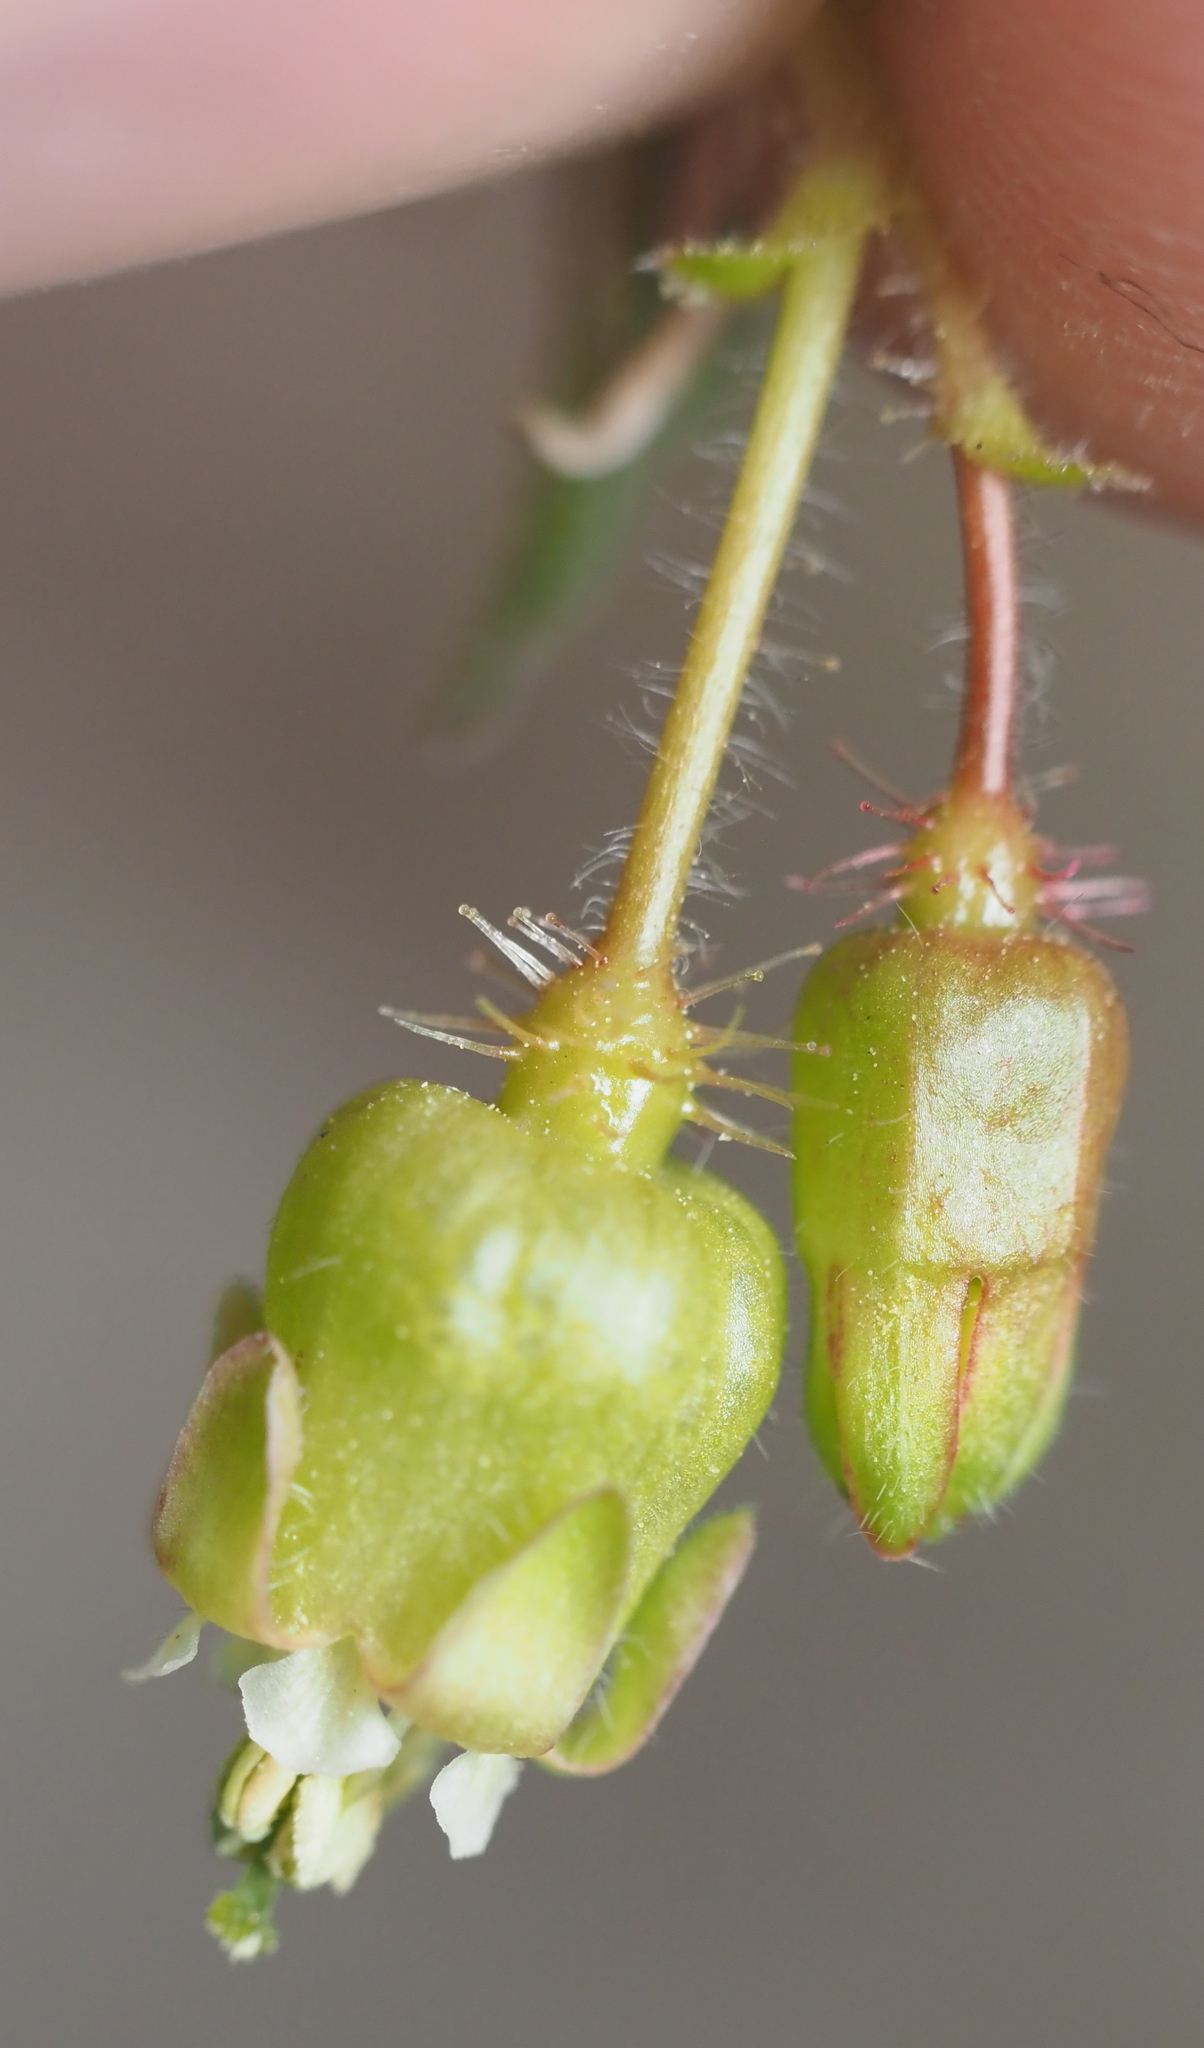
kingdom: Plantae
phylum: Tracheophyta
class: Magnoliopsida
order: Saxifragales
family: Grossulariaceae
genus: Ribes
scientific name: Ribes cynosbati
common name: American gooseberry
